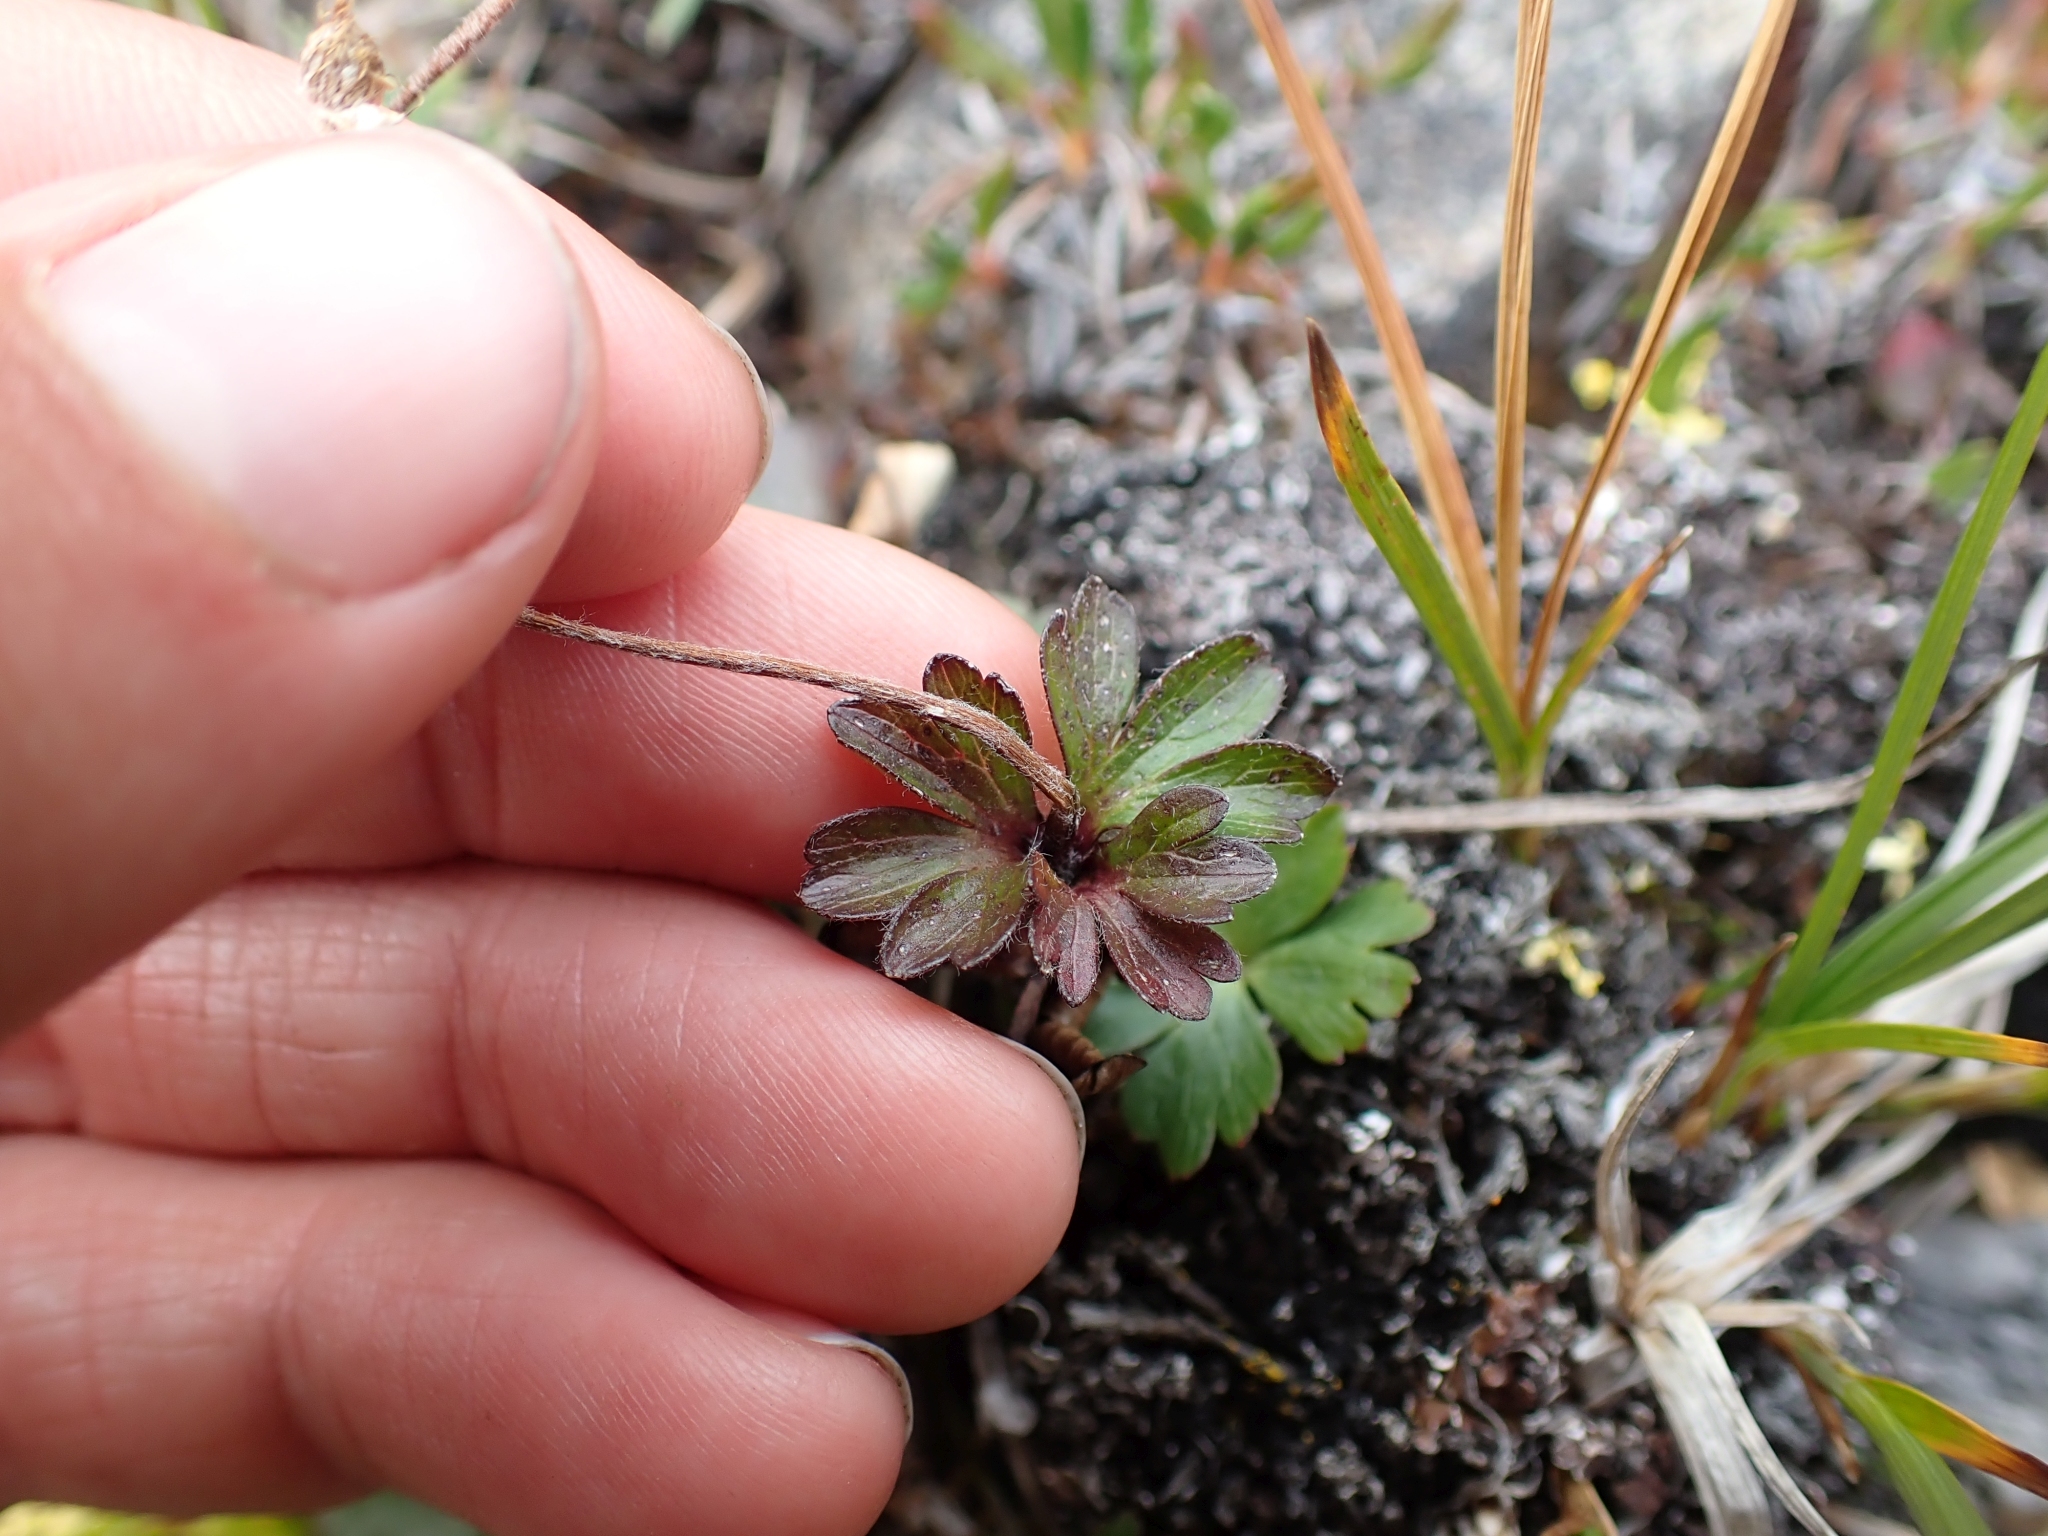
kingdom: Plantae
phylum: Tracheophyta
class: Magnoliopsida
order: Ranunculales
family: Ranunculaceae
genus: Anemone
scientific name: Anemone parviflora
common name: Northern anemone
